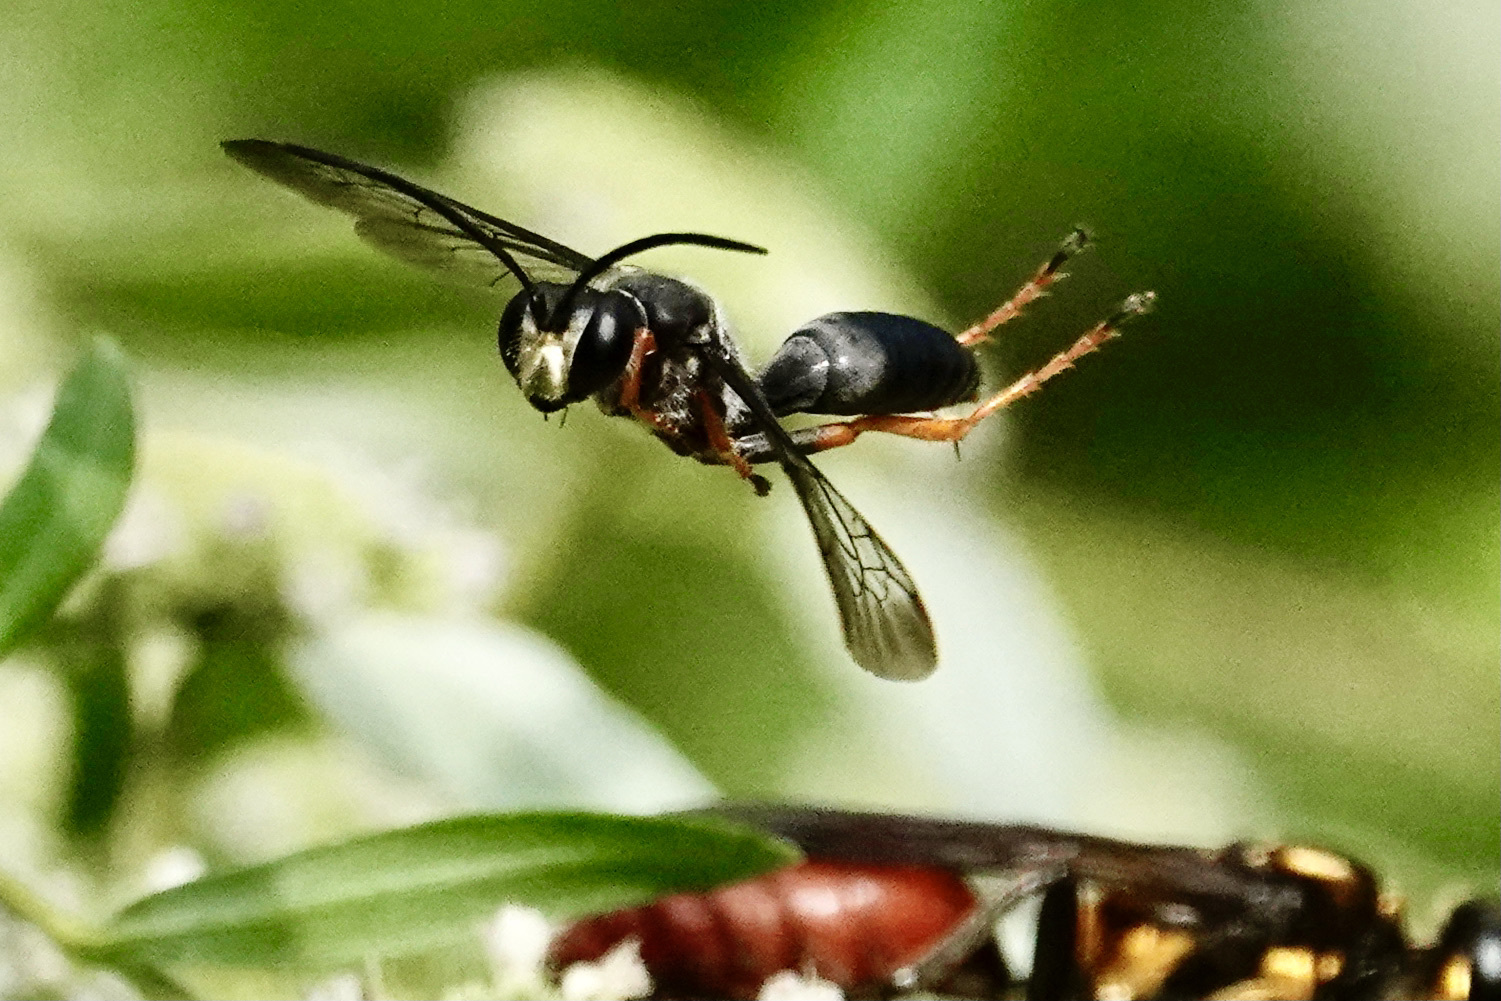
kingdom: Animalia
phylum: Arthropoda
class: Insecta
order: Hymenoptera
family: Sphecidae
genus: Sphex
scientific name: Sphex nudus
